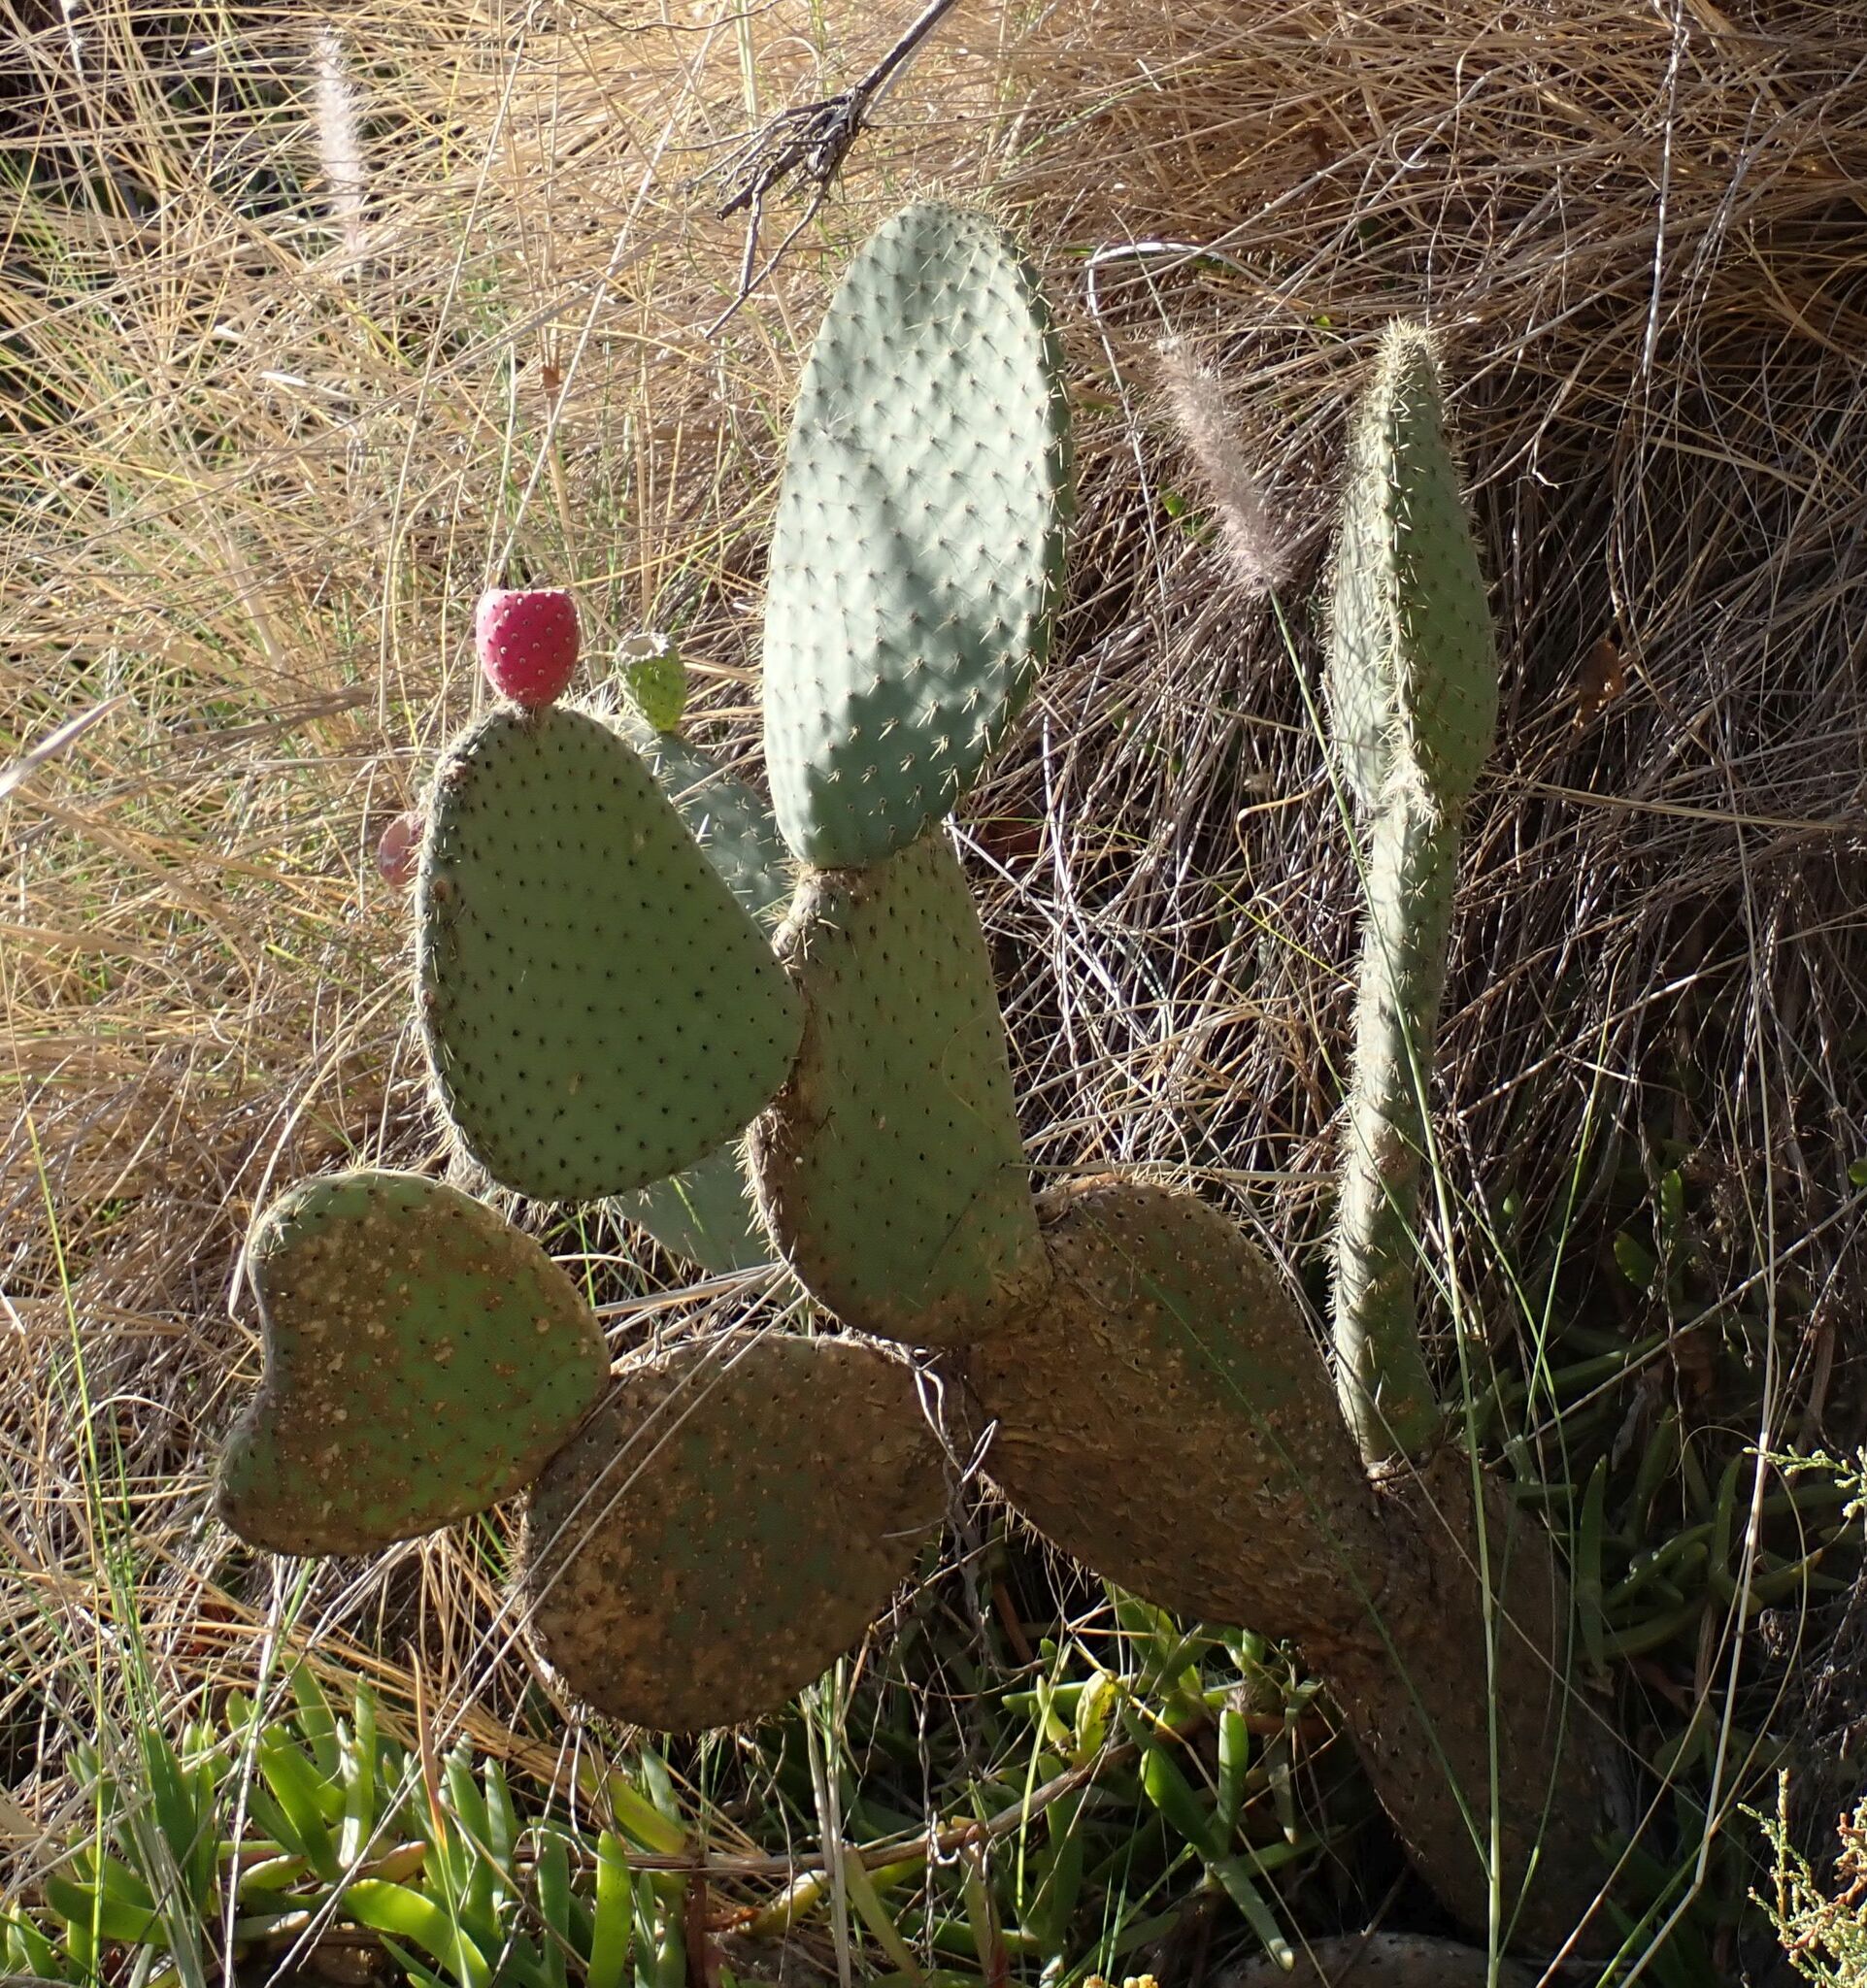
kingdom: Plantae
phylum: Tracheophyta
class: Magnoliopsida
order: Caryophyllales
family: Cactaceae
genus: Opuntia
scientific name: Opuntia leucotricha
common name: Arborescent pricklypear
